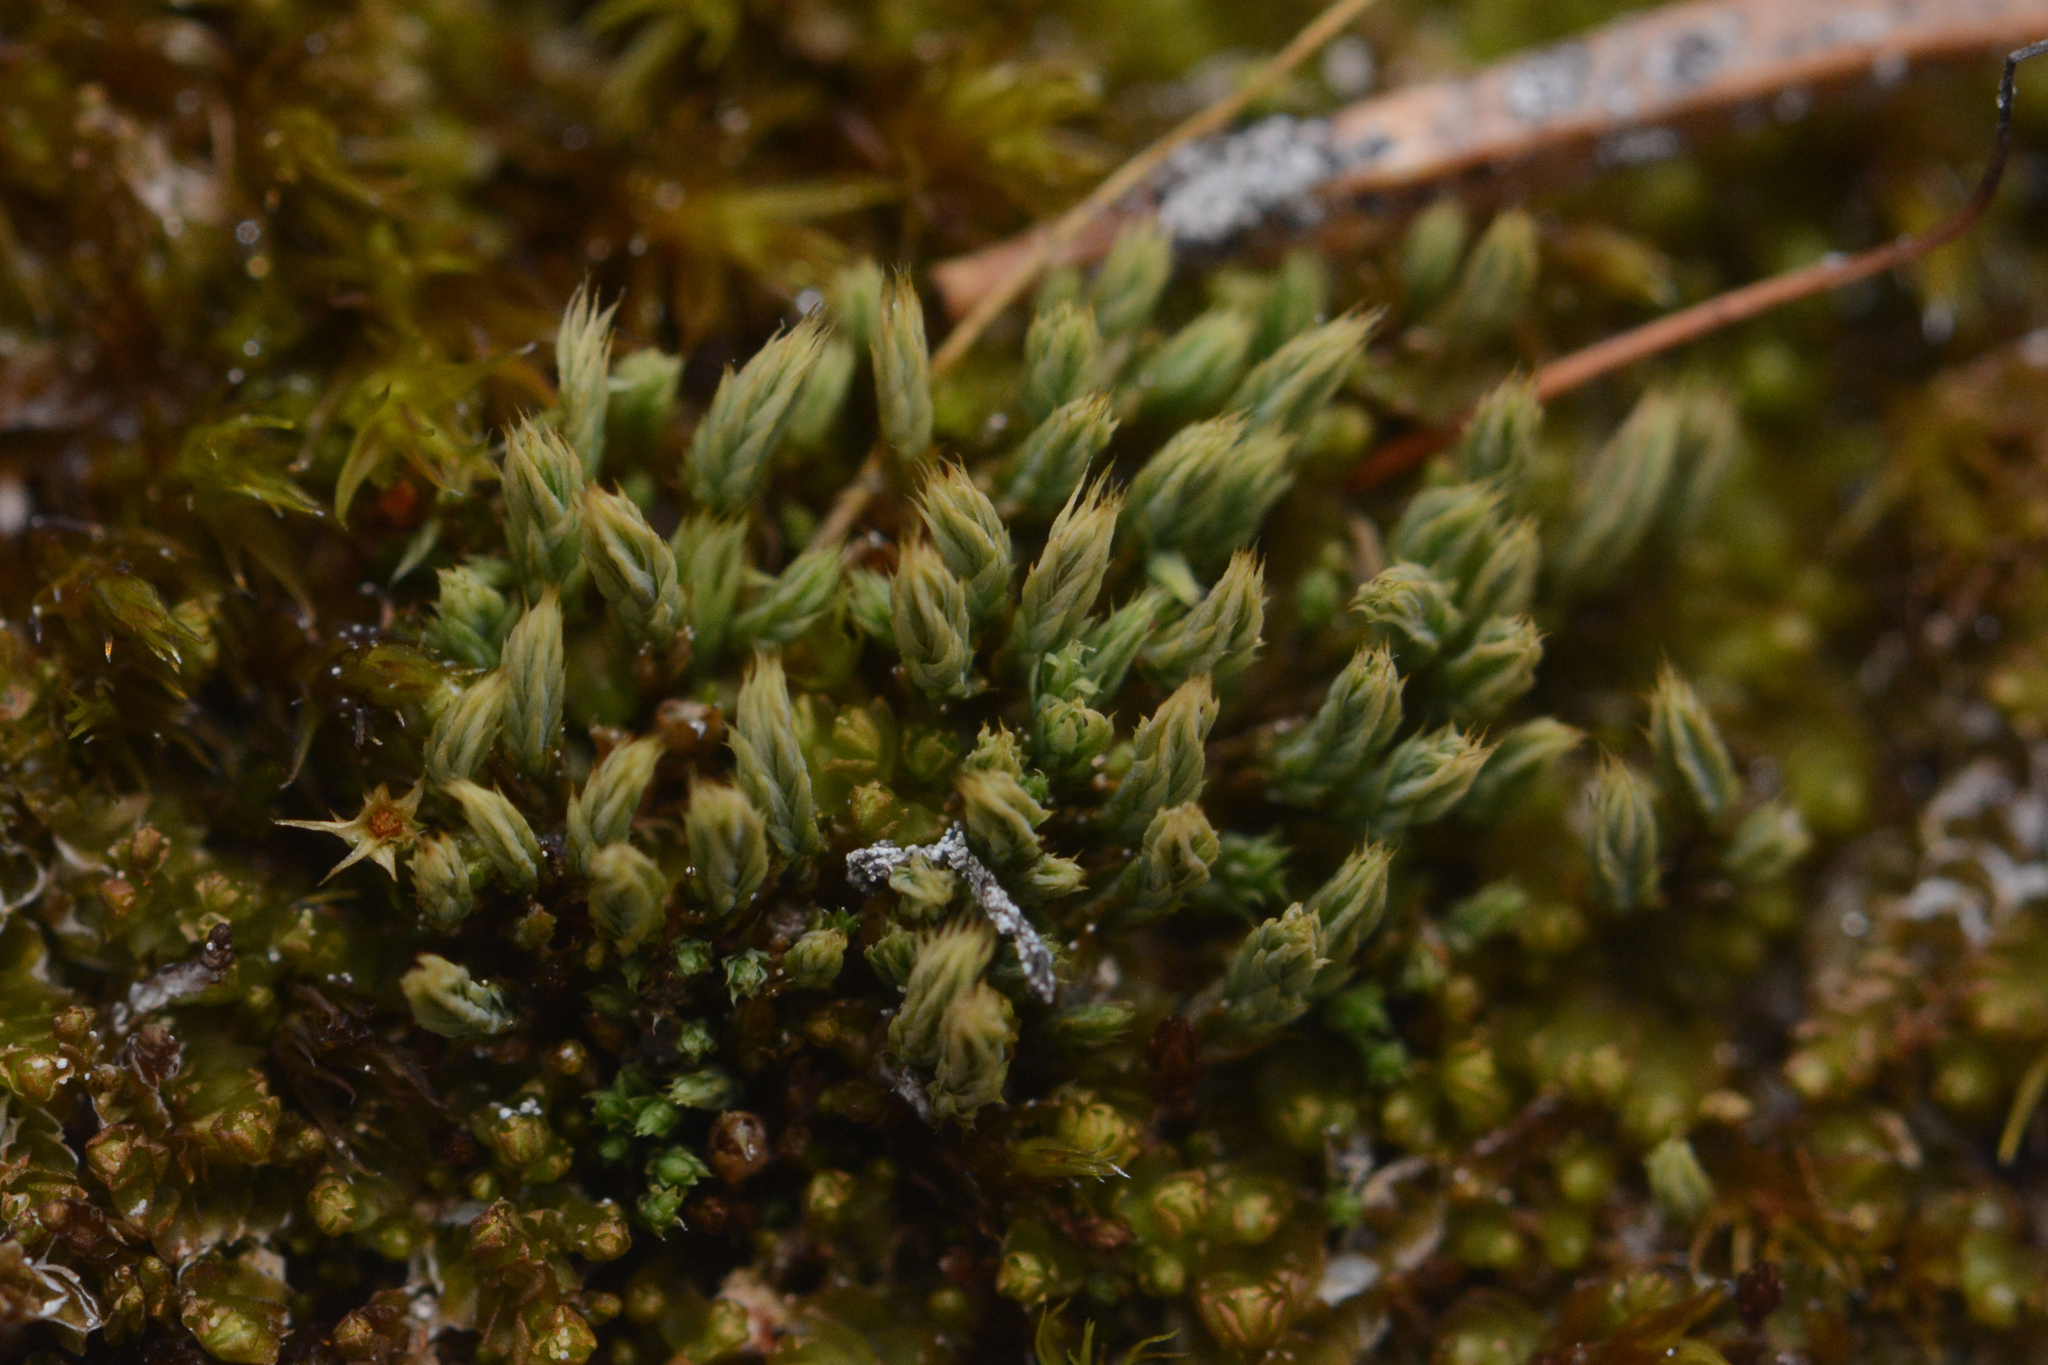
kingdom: Plantae
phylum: Bryophyta
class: Bryopsida
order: Bartramiales
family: Bartramiaceae
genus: Conostomum
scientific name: Conostomum tetragonum
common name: Helmet moss
